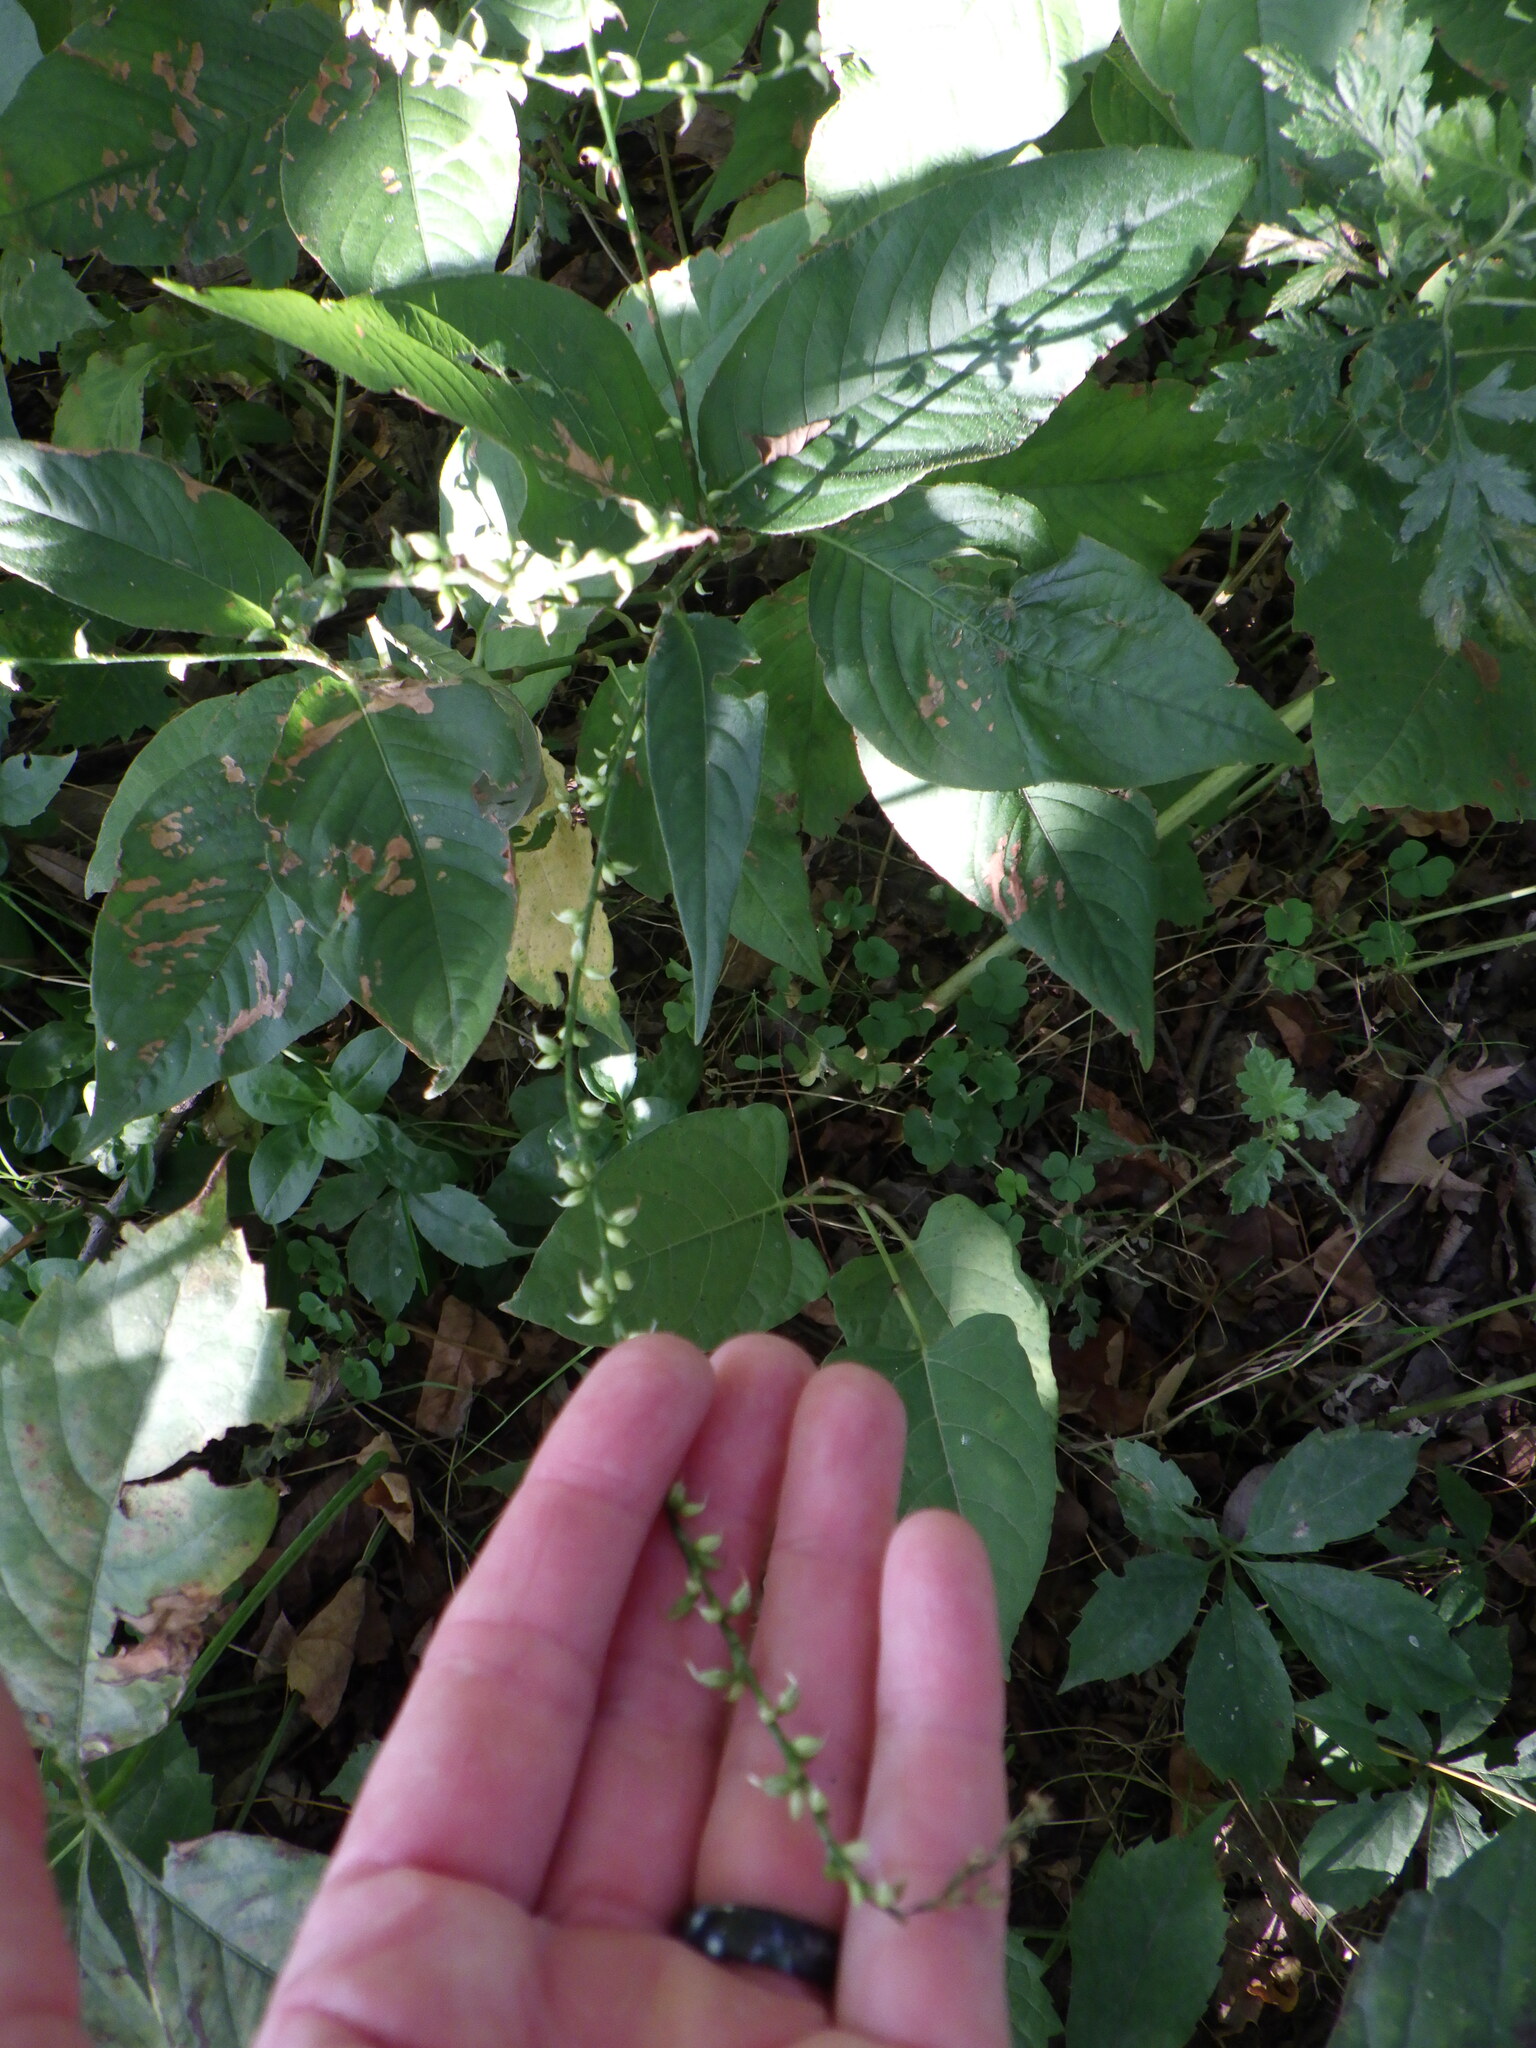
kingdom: Plantae
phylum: Tracheophyta
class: Magnoliopsida
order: Caryophyllales
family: Polygonaceae
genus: Persicaria
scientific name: Persicaria virginiana
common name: Jumpseed
